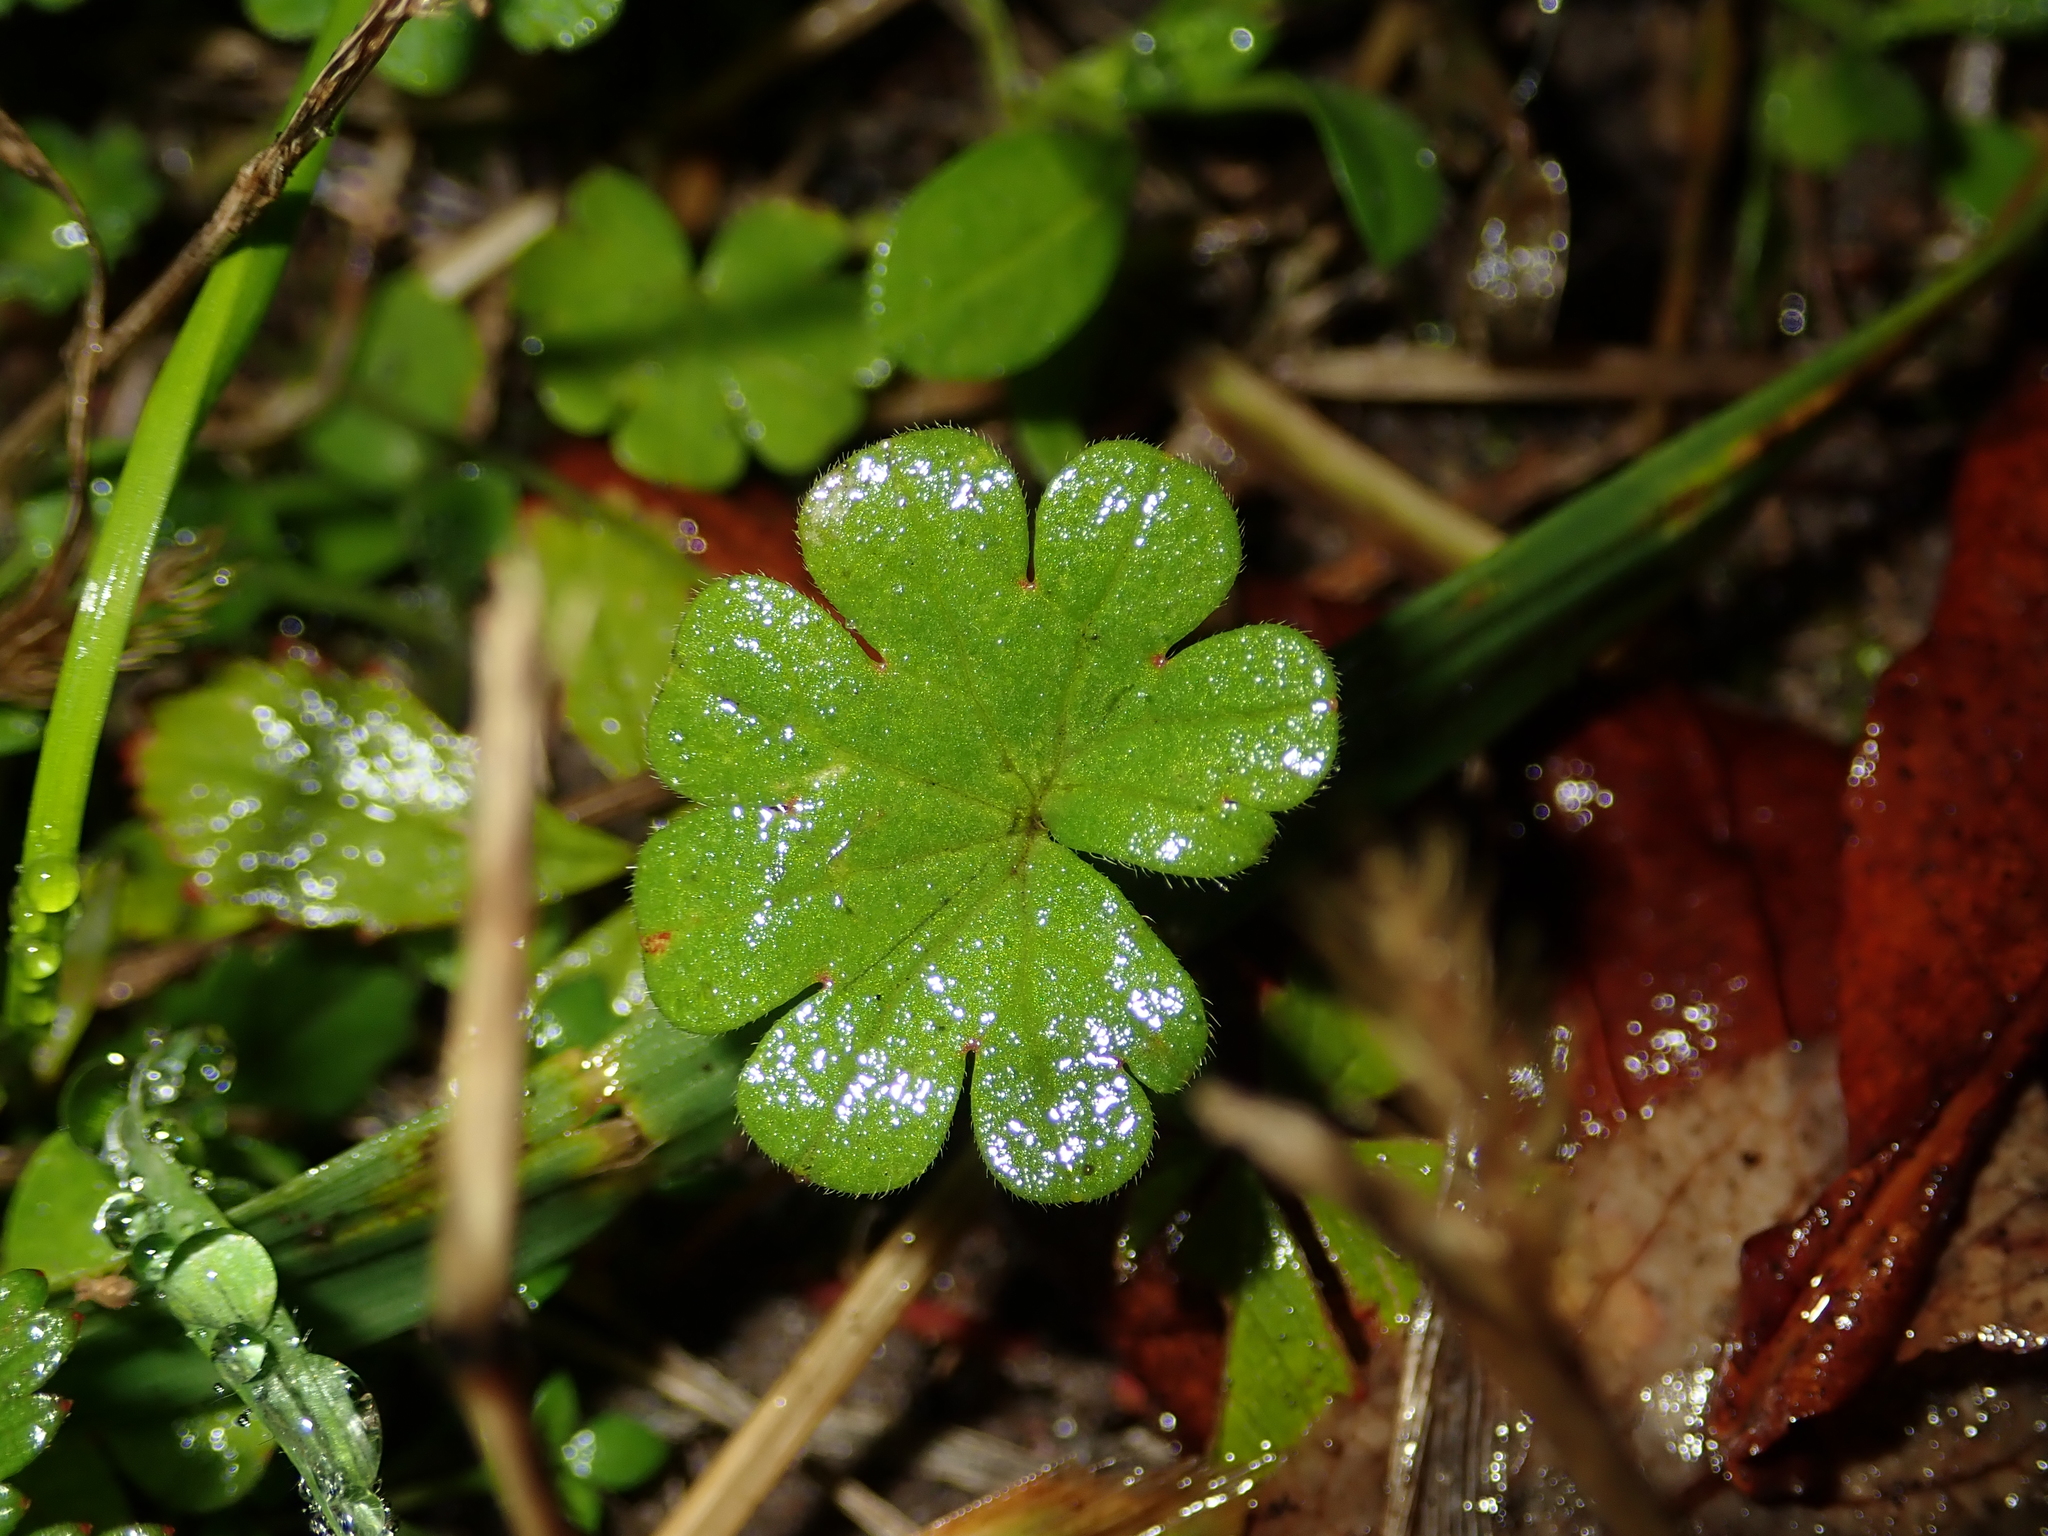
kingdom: Plantae
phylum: Tracheophyta
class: Magnoliopsida
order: Geraniales
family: Geraniaceae
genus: Geranium
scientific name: Geranium molle
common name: Dove's-foot crane's-bill
